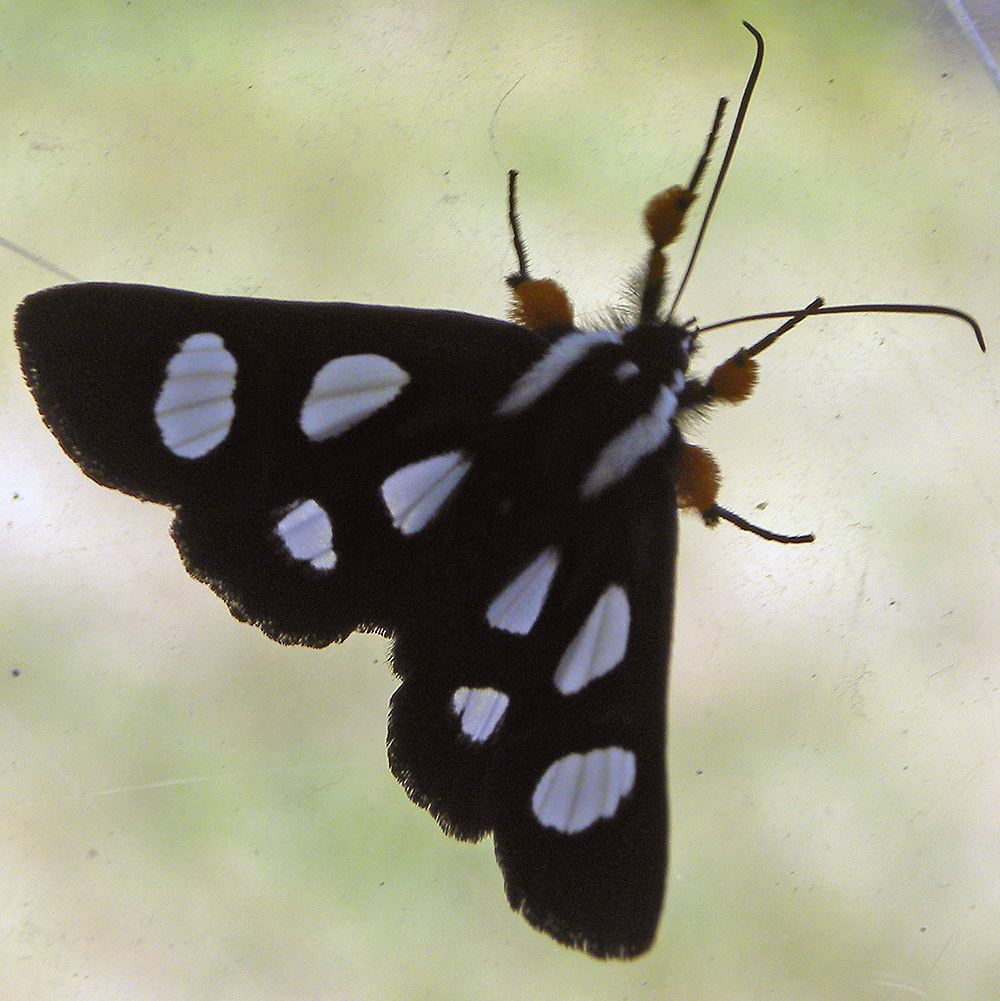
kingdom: Animalia
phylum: Arthropoda
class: Insecta
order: Lepidoptera
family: Noctuidae
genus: Alypia
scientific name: Alypia octomaculata
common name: Eight-spotted forester
